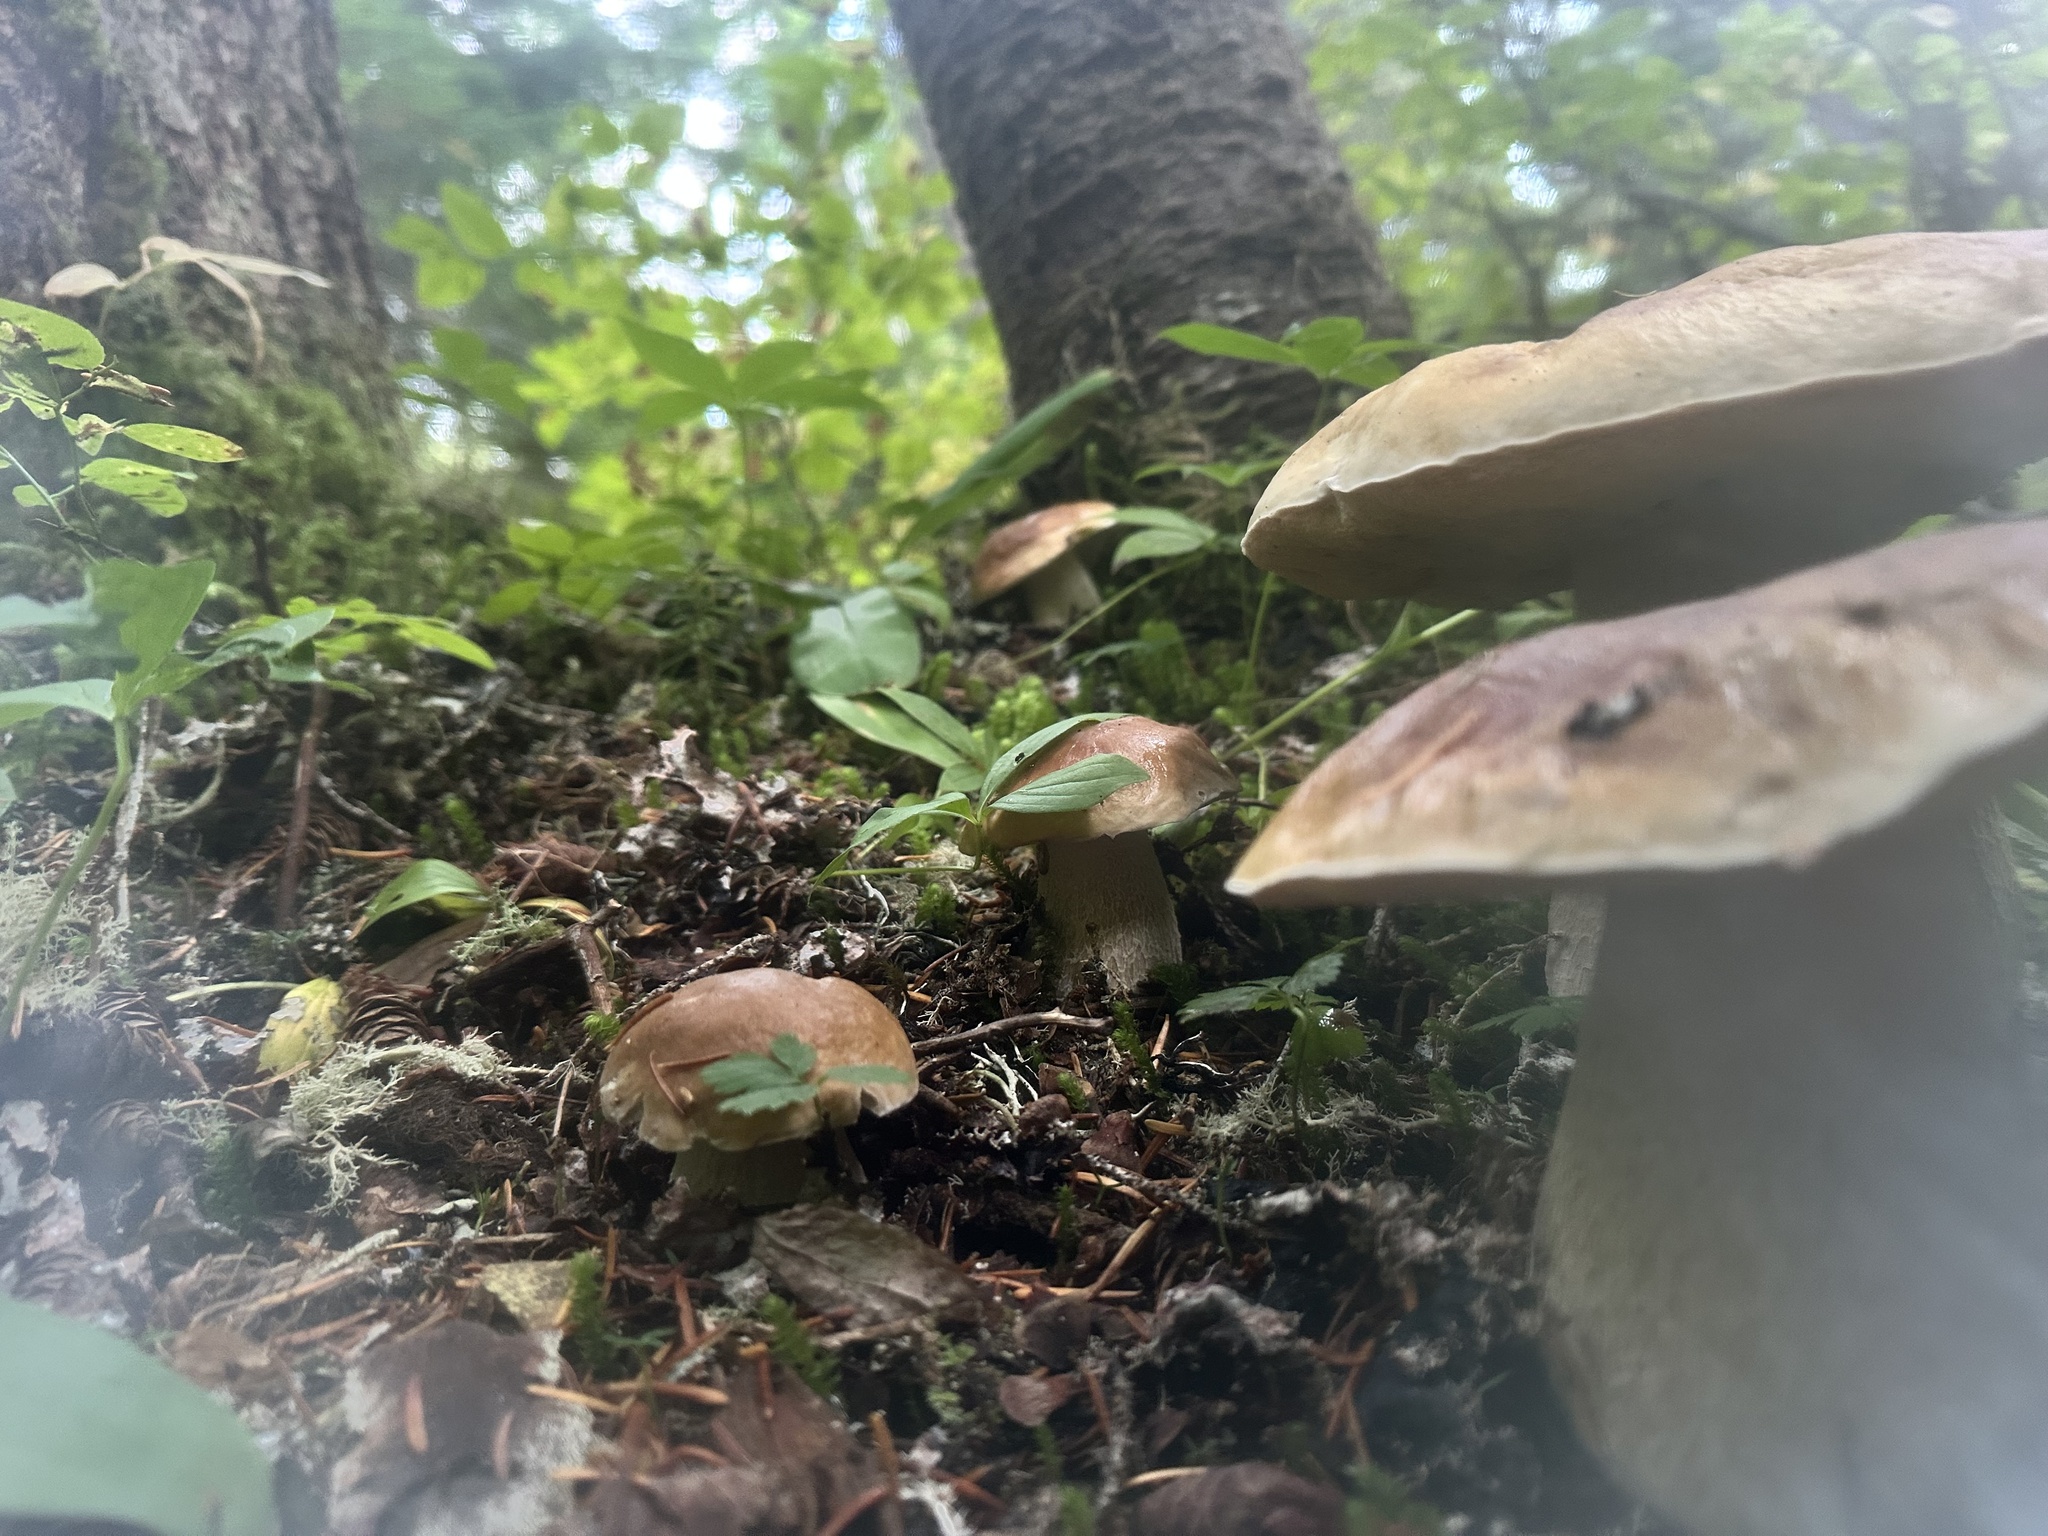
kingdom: Fungi
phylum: Basidiomycota
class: Agaricomycetes
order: Boletales
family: Boletaceae
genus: Boletus
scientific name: Boletus edulis
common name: Cep
